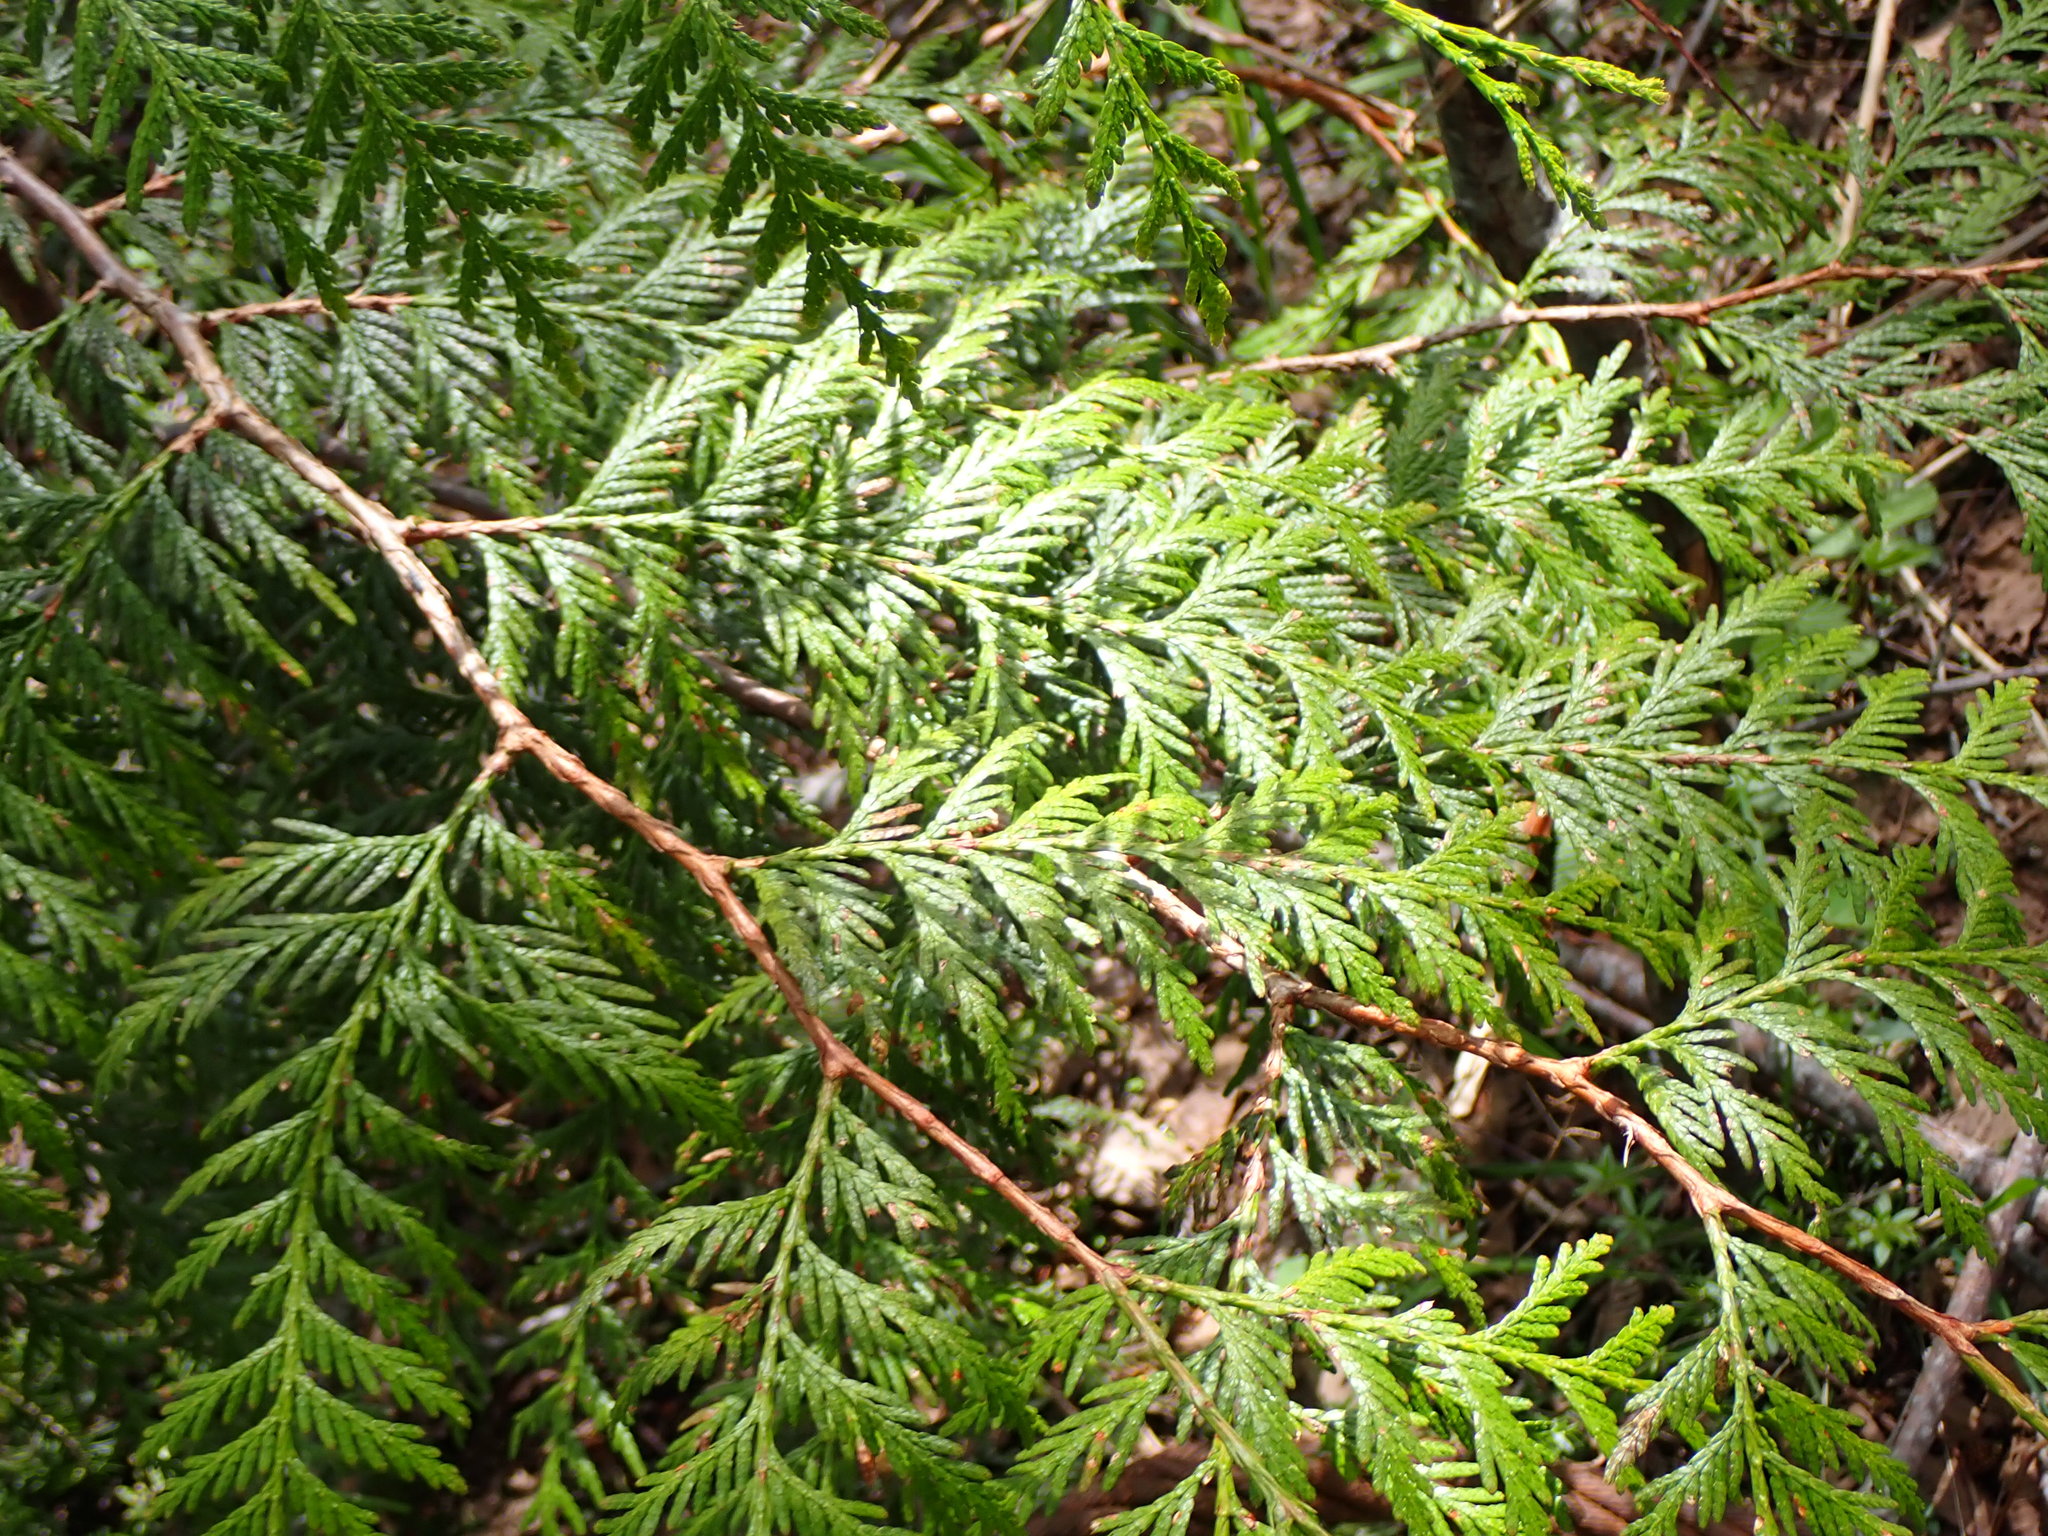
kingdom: Plantae
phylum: Tracheophyta
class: Pinopsida
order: Pinales
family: Cupressaceae
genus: Thuja
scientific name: Thuja plicata
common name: Western red-cedar
